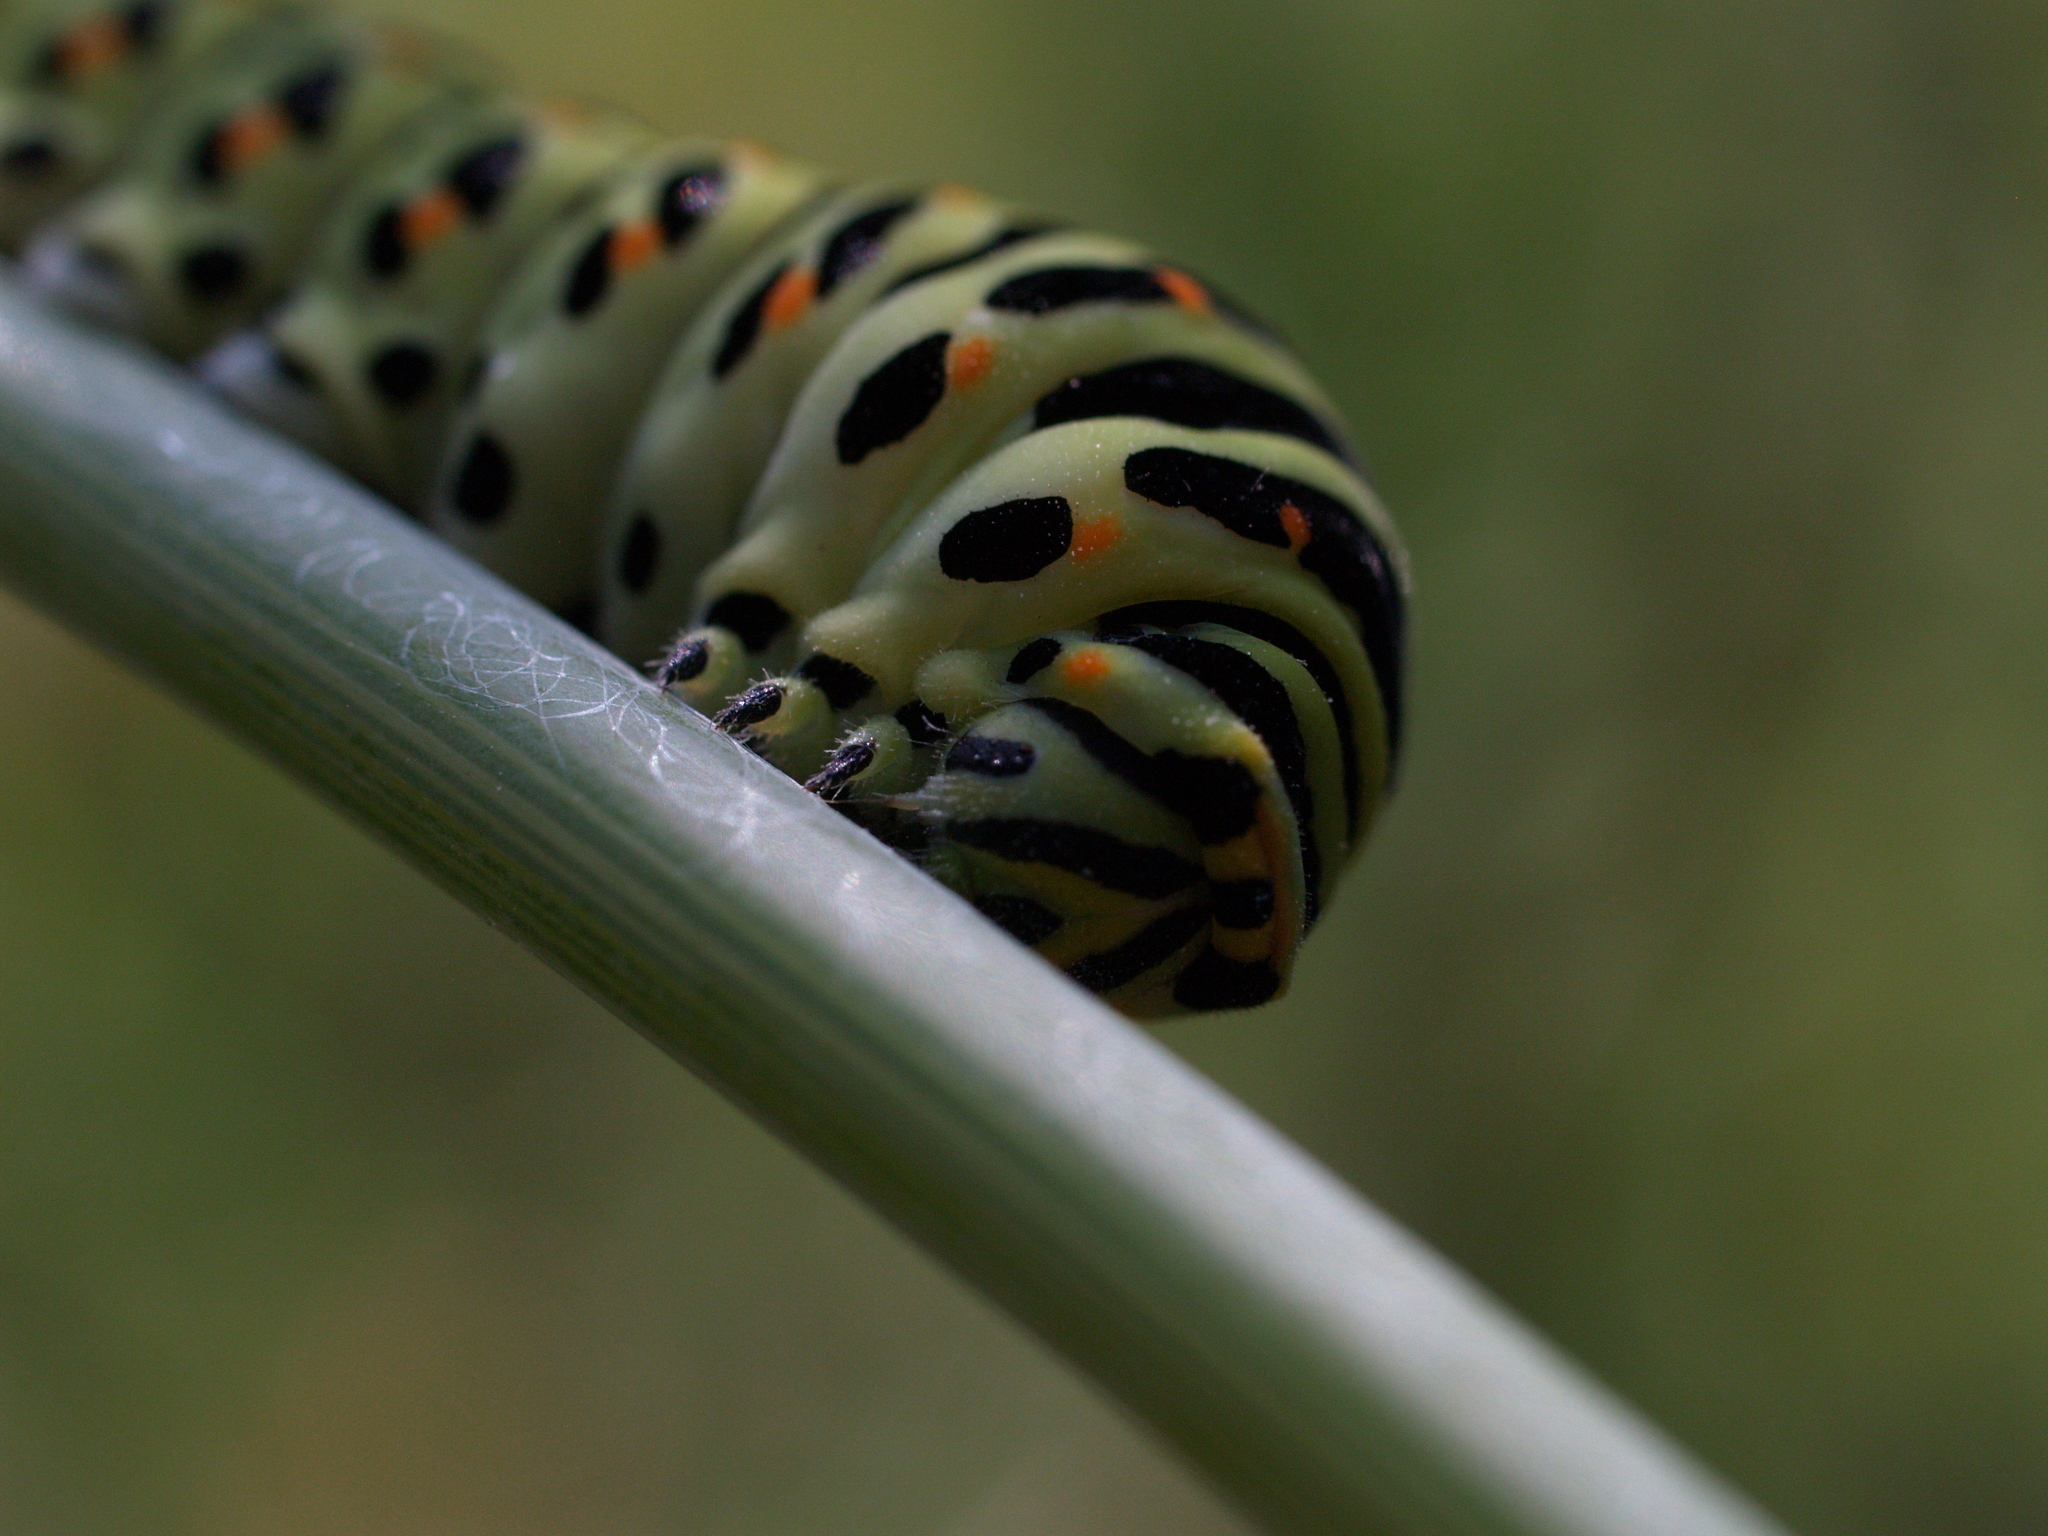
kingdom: Animalia
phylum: Arthropoda
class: Insecta
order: Lepidoptera
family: Papilionidae
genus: Papilio
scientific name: Papilio machaon
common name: Swallowtail
